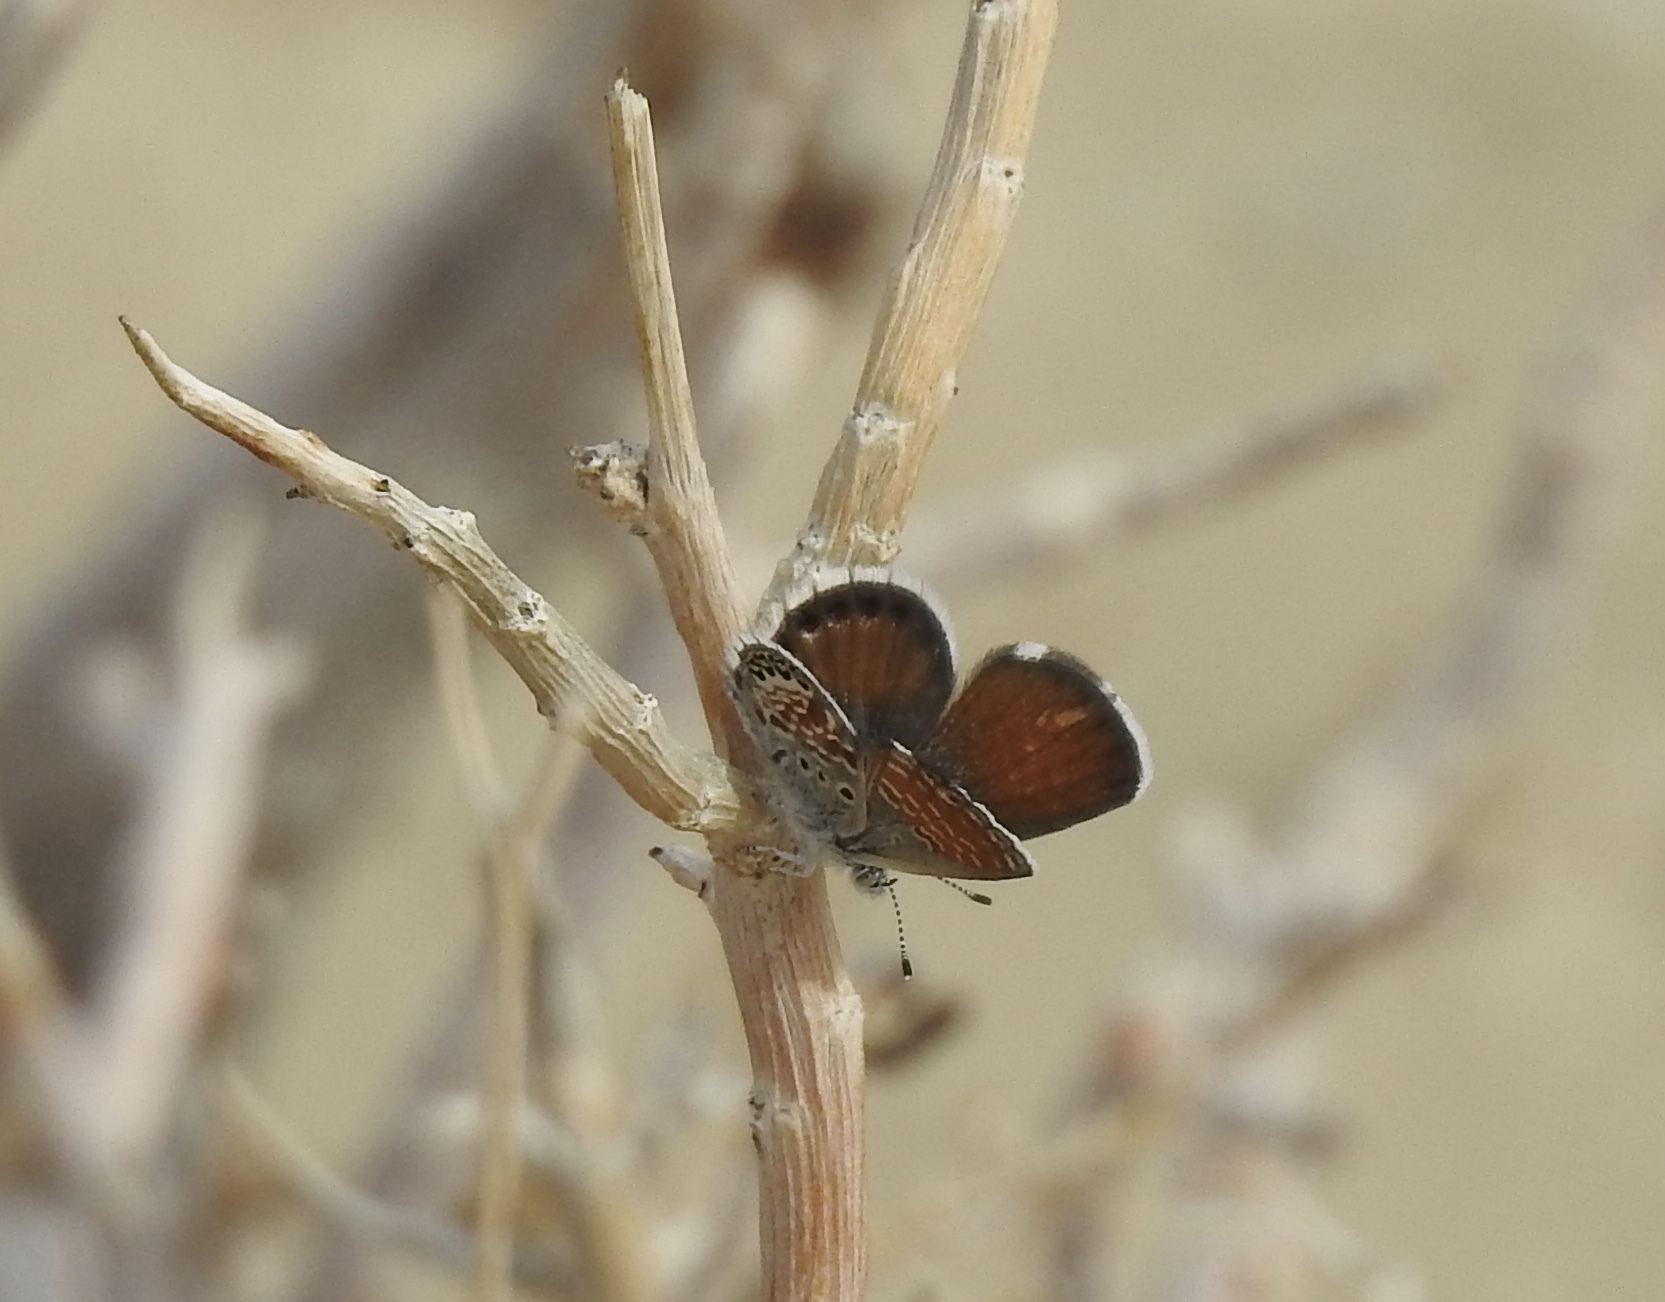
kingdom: Animalia
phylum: Arthropoda
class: Insecta
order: Lepidoptera
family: Lycaenidae
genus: Brephidium
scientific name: Brephidium exilis
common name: Pygmy blue
